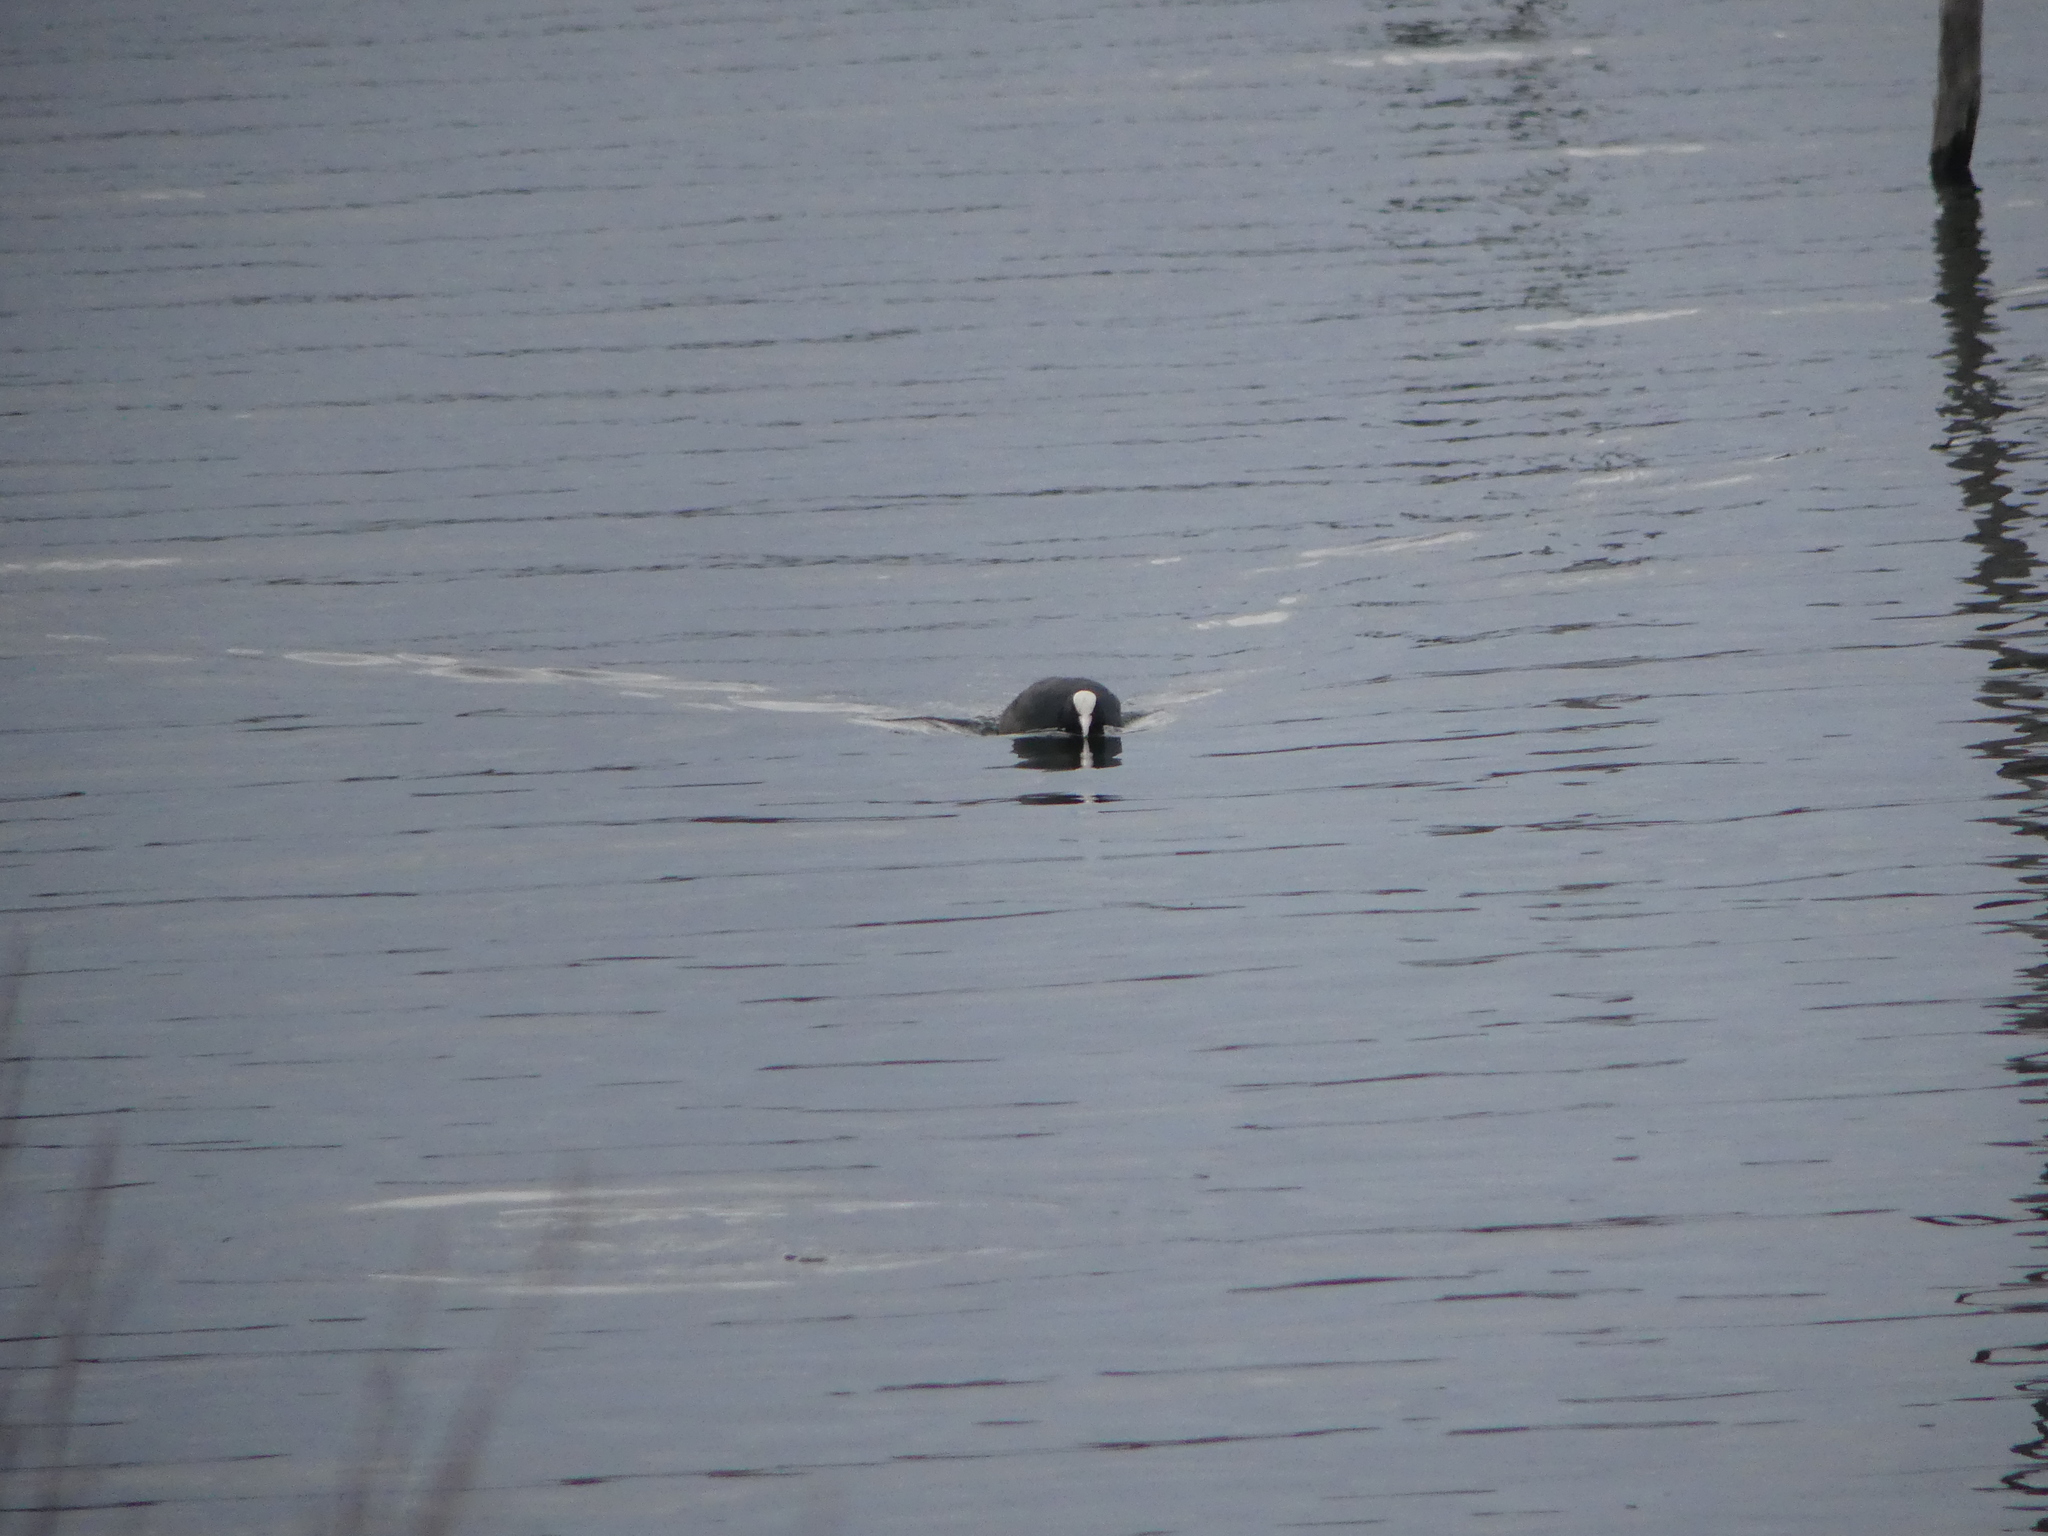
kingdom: Animalia
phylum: Chordata
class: Aves
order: Gruiformes
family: Rallidae
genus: Fulica
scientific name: Fulica atra
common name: Eurasian coot
